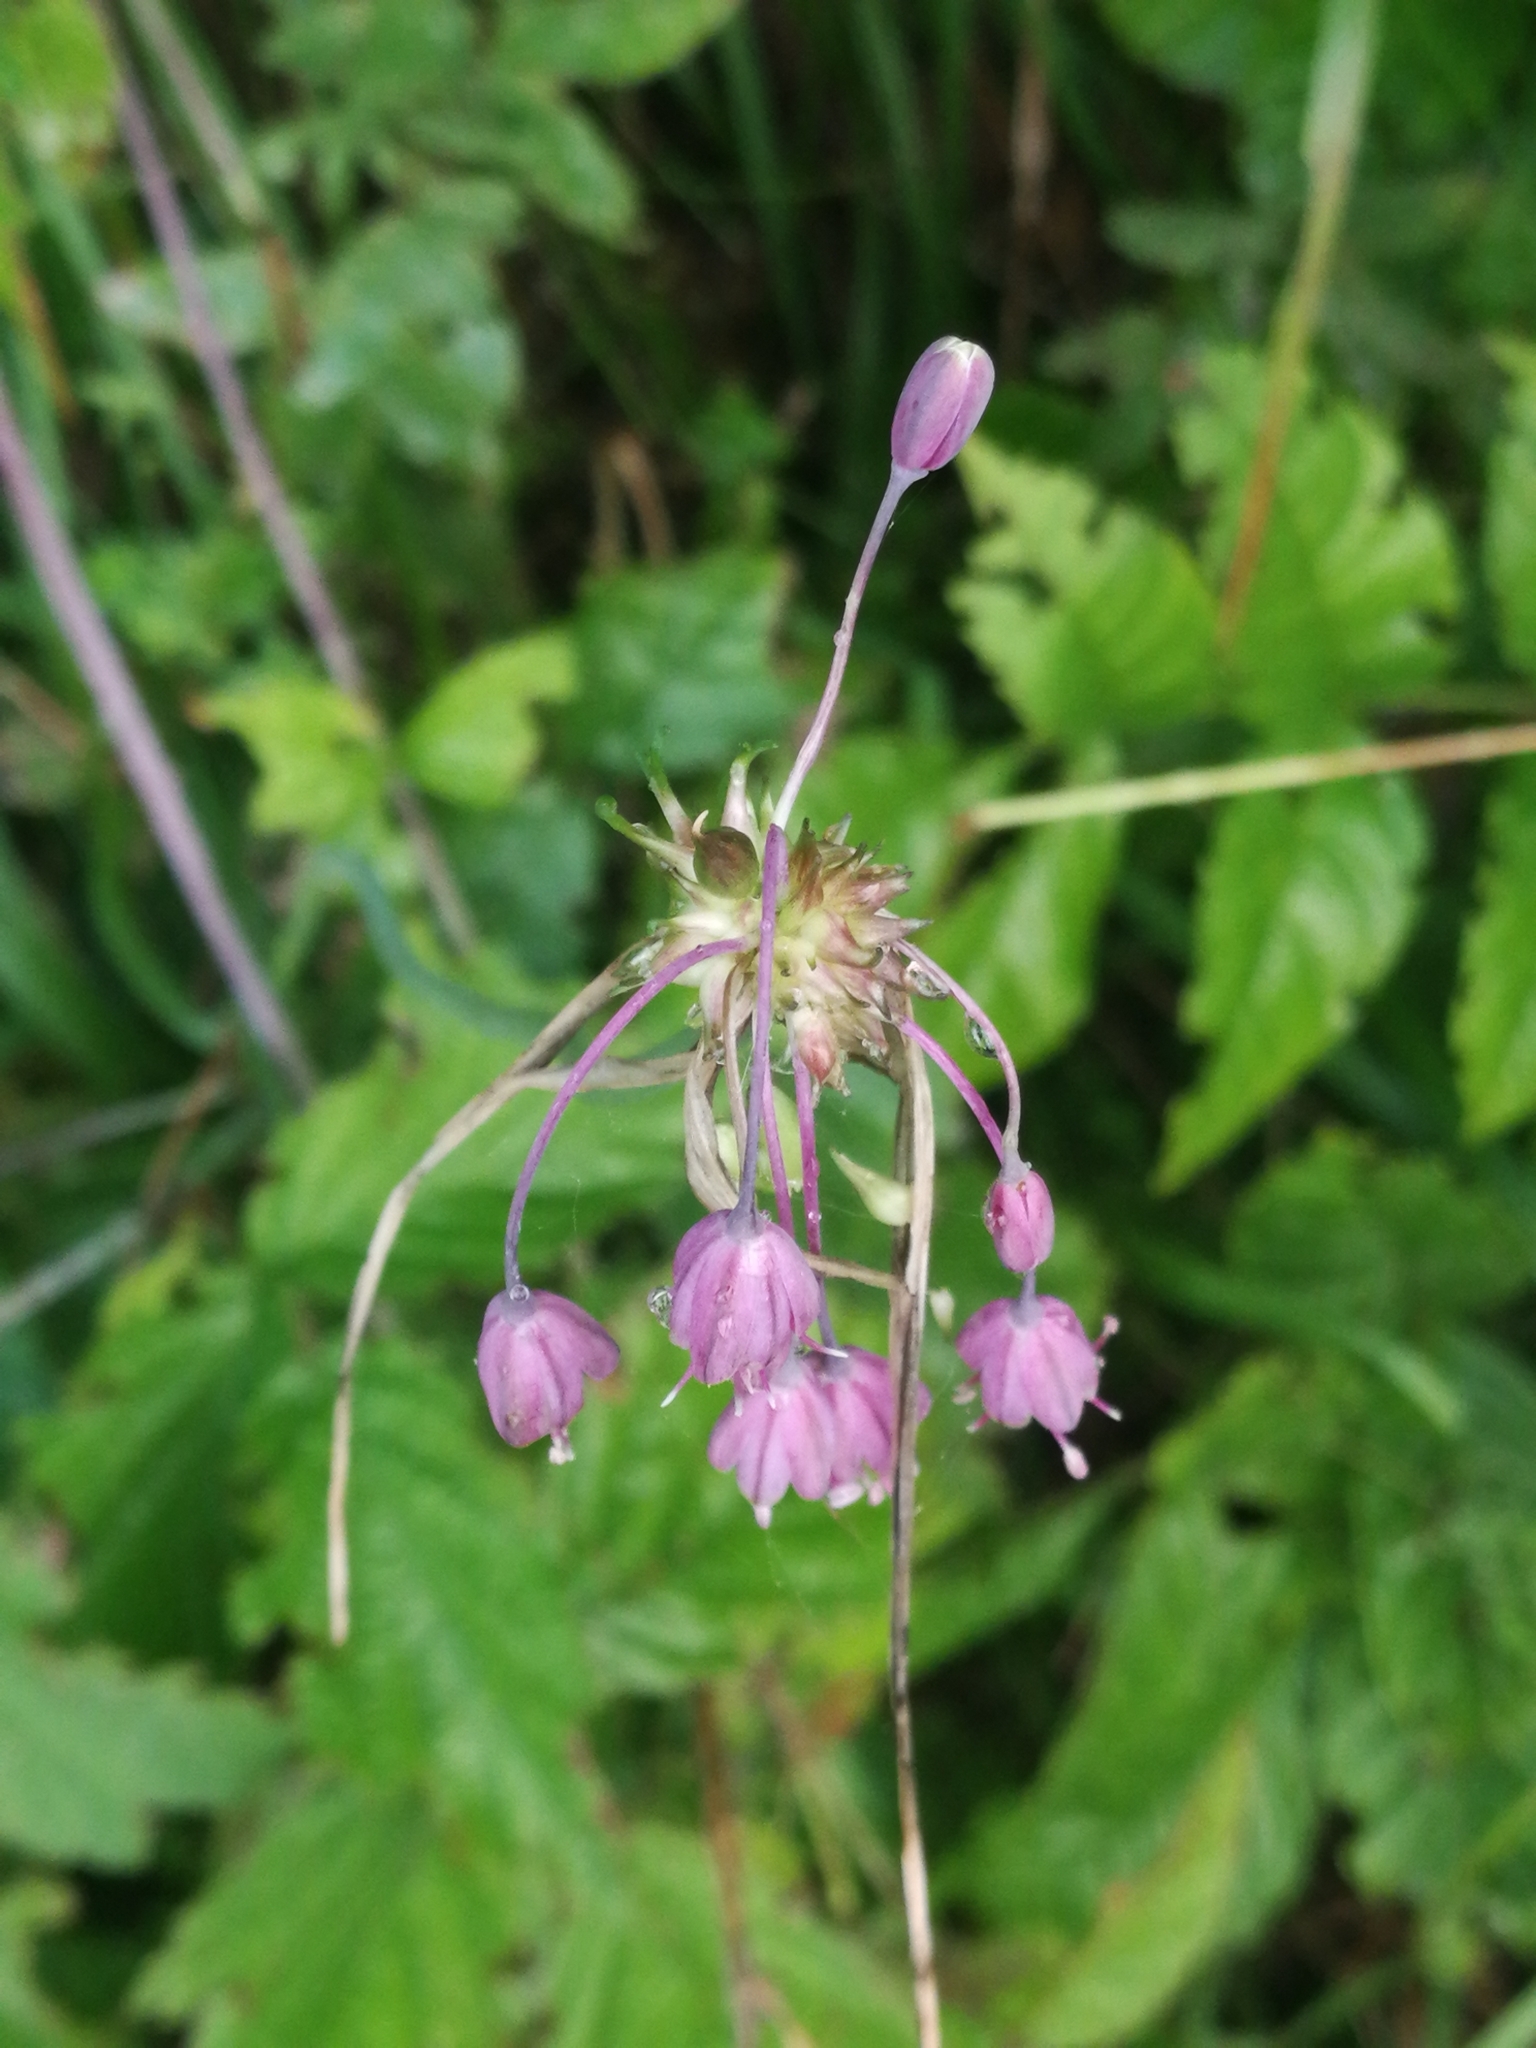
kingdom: Plantae
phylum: Tracheophyta
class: Liliopsida
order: Asparagales
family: Amaryllidaceae
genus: Allium
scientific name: Allium carinatum
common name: Keeled garlic
